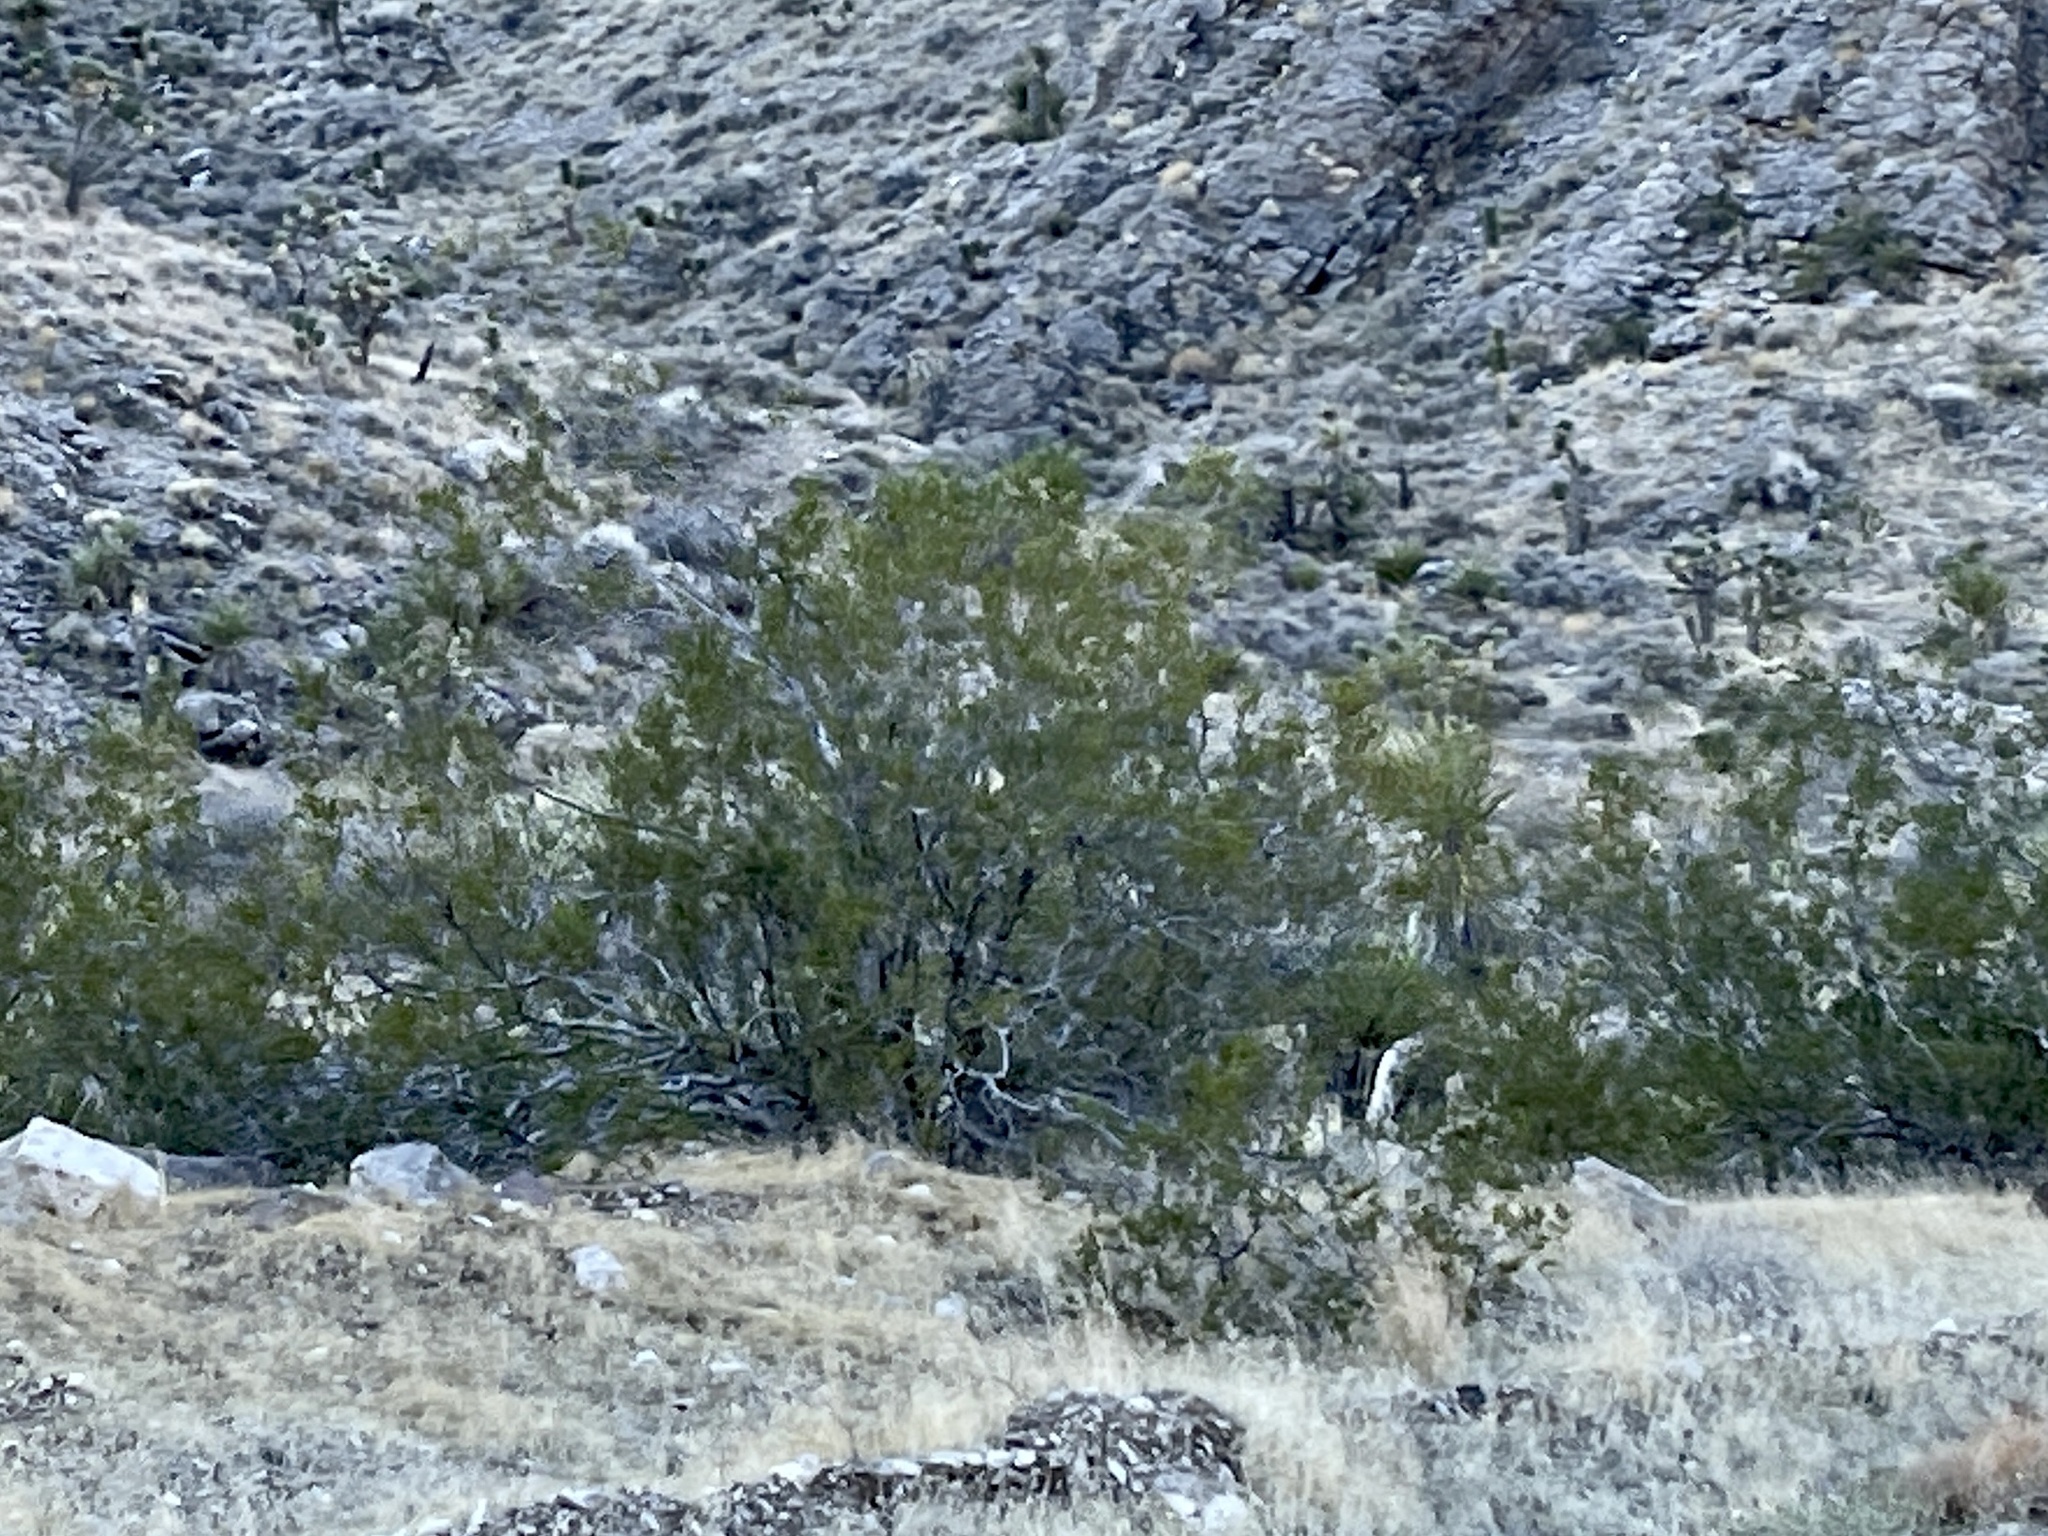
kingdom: Plantae
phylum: Tracheophyta
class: Magnoliopsida
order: Zygophyllales
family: Zygophyllaceae
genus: Larrea
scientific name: Larrea tridentata
